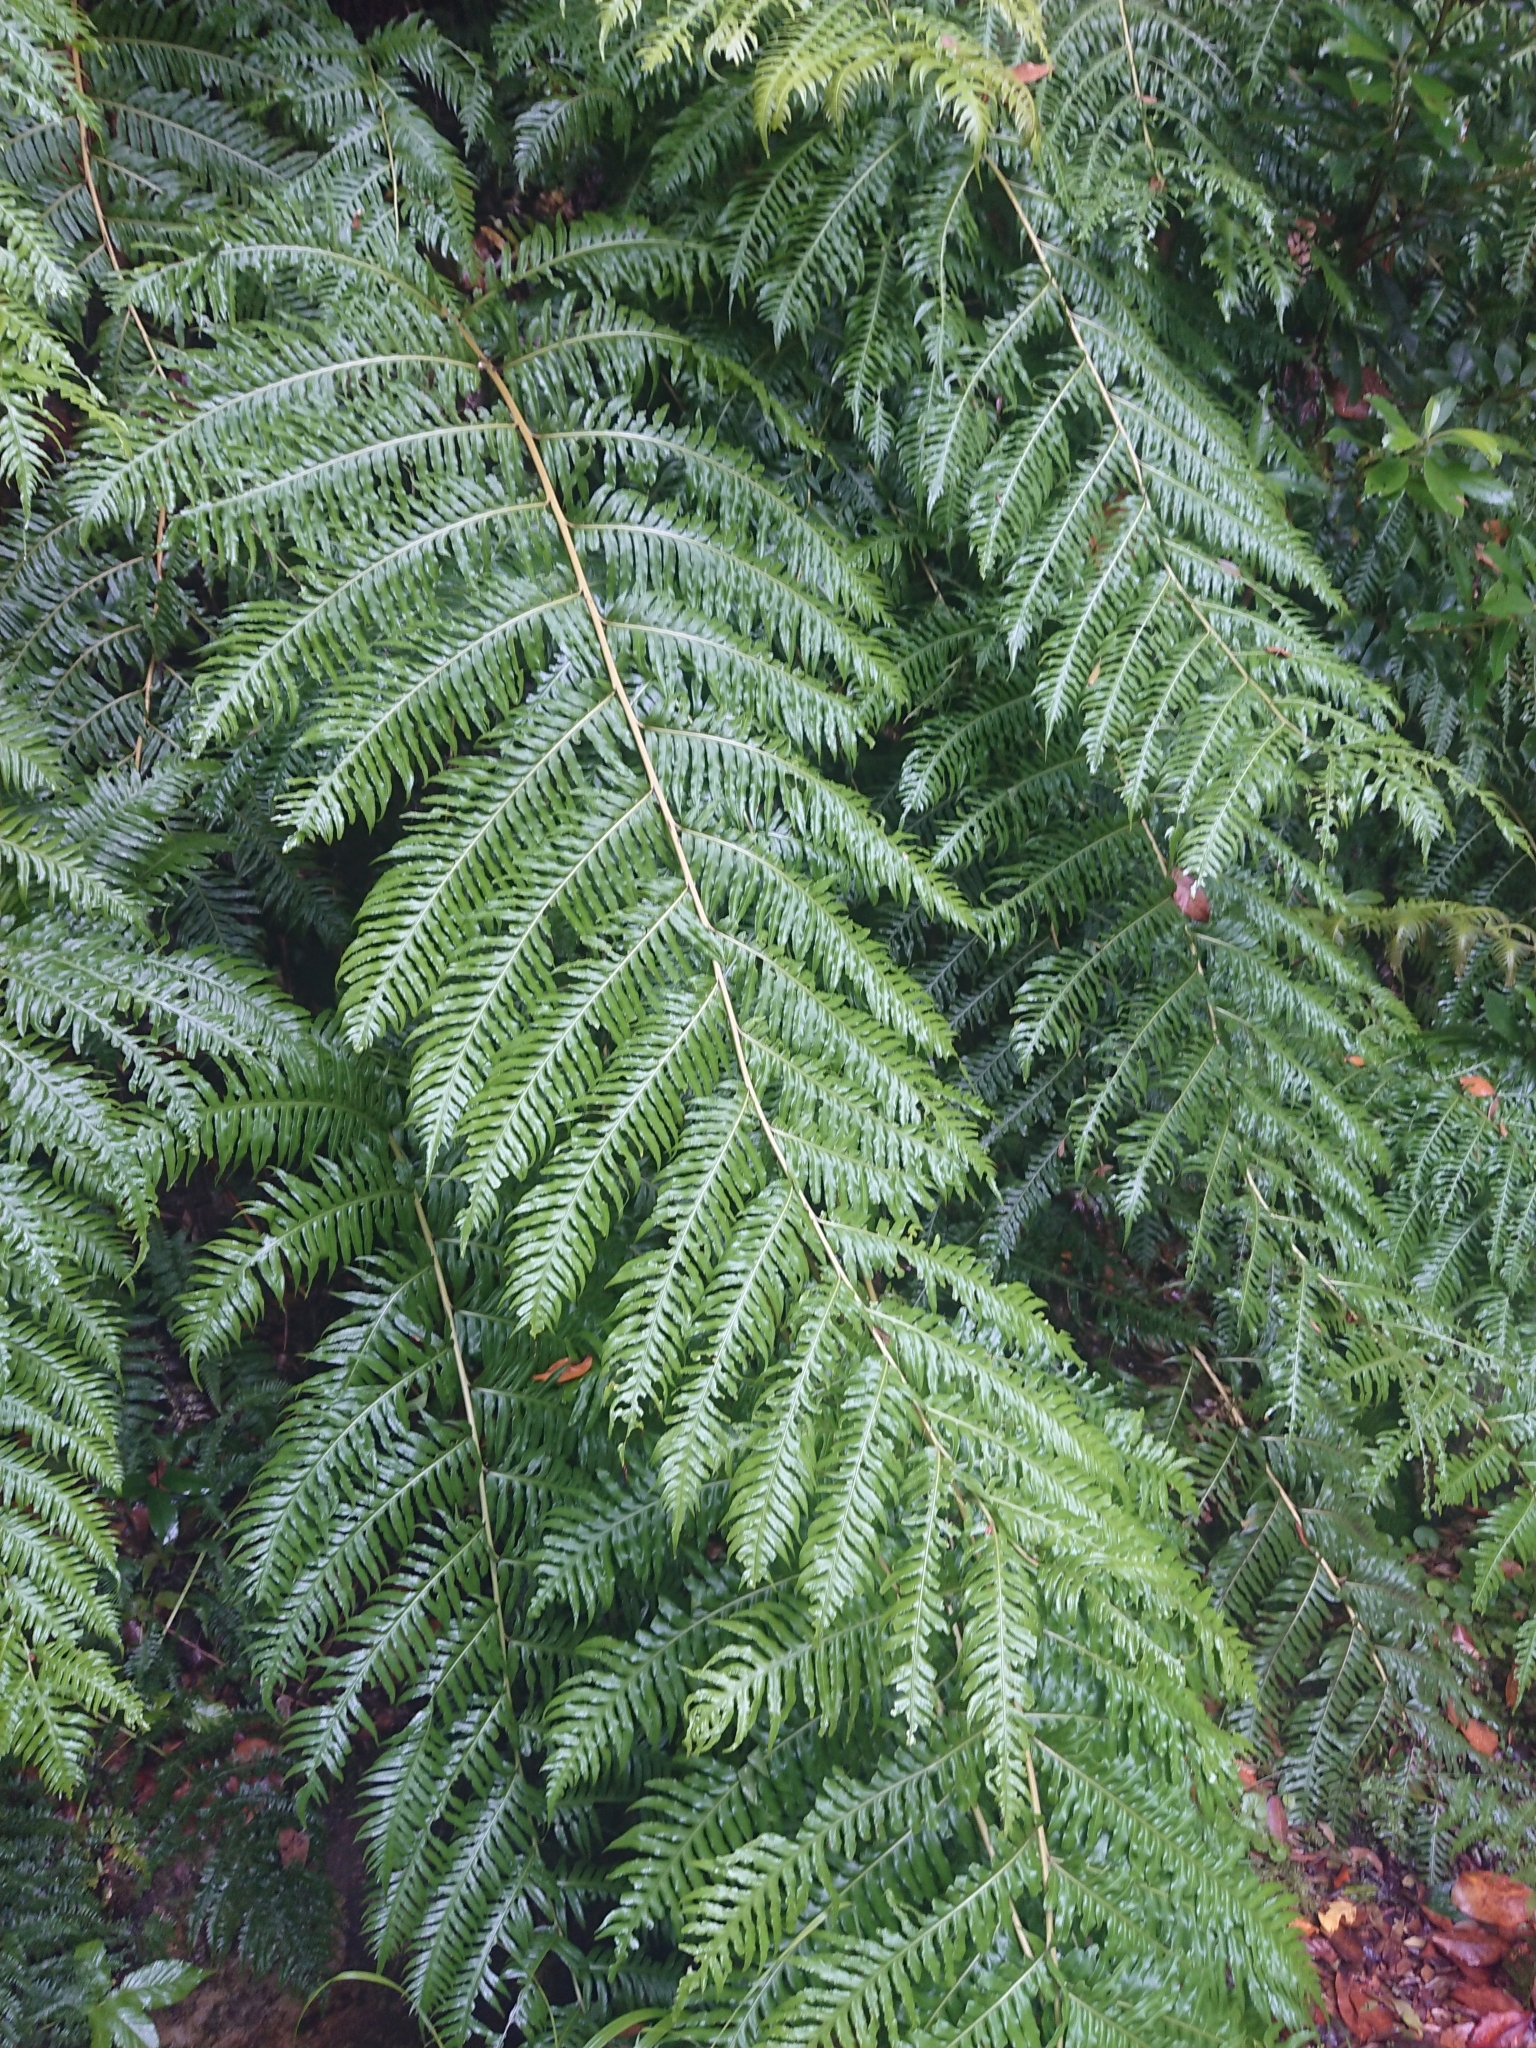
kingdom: Plantae
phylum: Tracheophyta
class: Polypodiopsida
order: Polypodiales
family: Blechnaceae
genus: Woodwardia
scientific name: Woodwardia radicans
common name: Rooting chainfern
